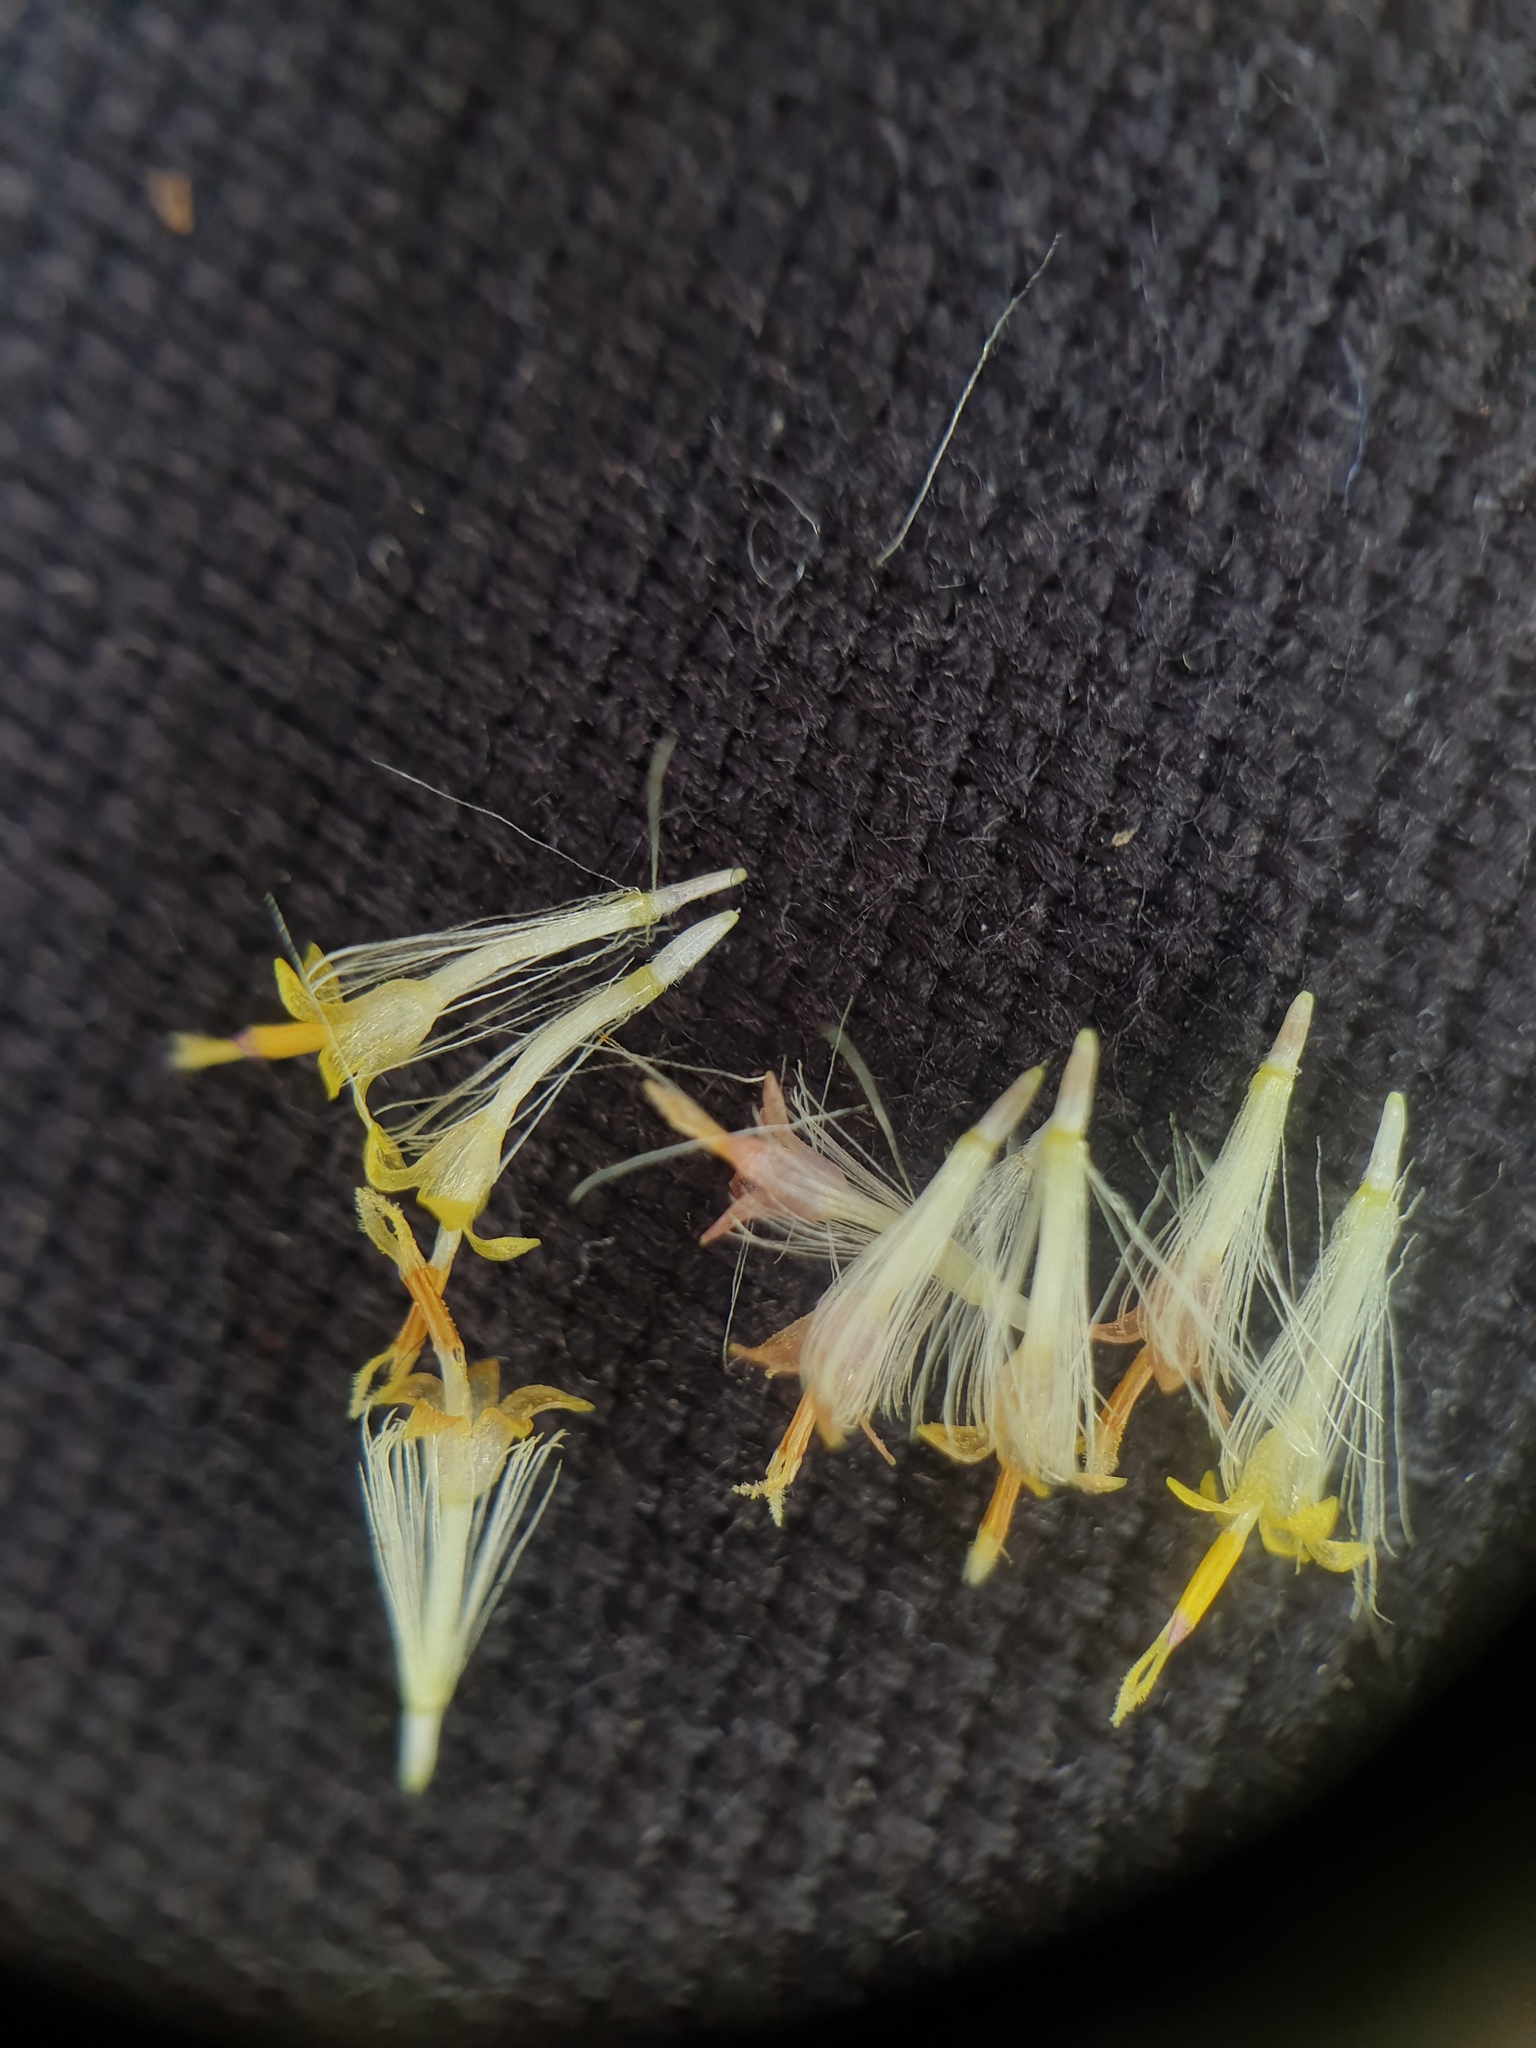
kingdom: Plantae
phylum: Tracheophyta
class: Magnoliopsida
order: Asterales
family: Asteraceae
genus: Symphyotrichum
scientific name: Symphyotrichum ontarionis
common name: Bottomland aster
